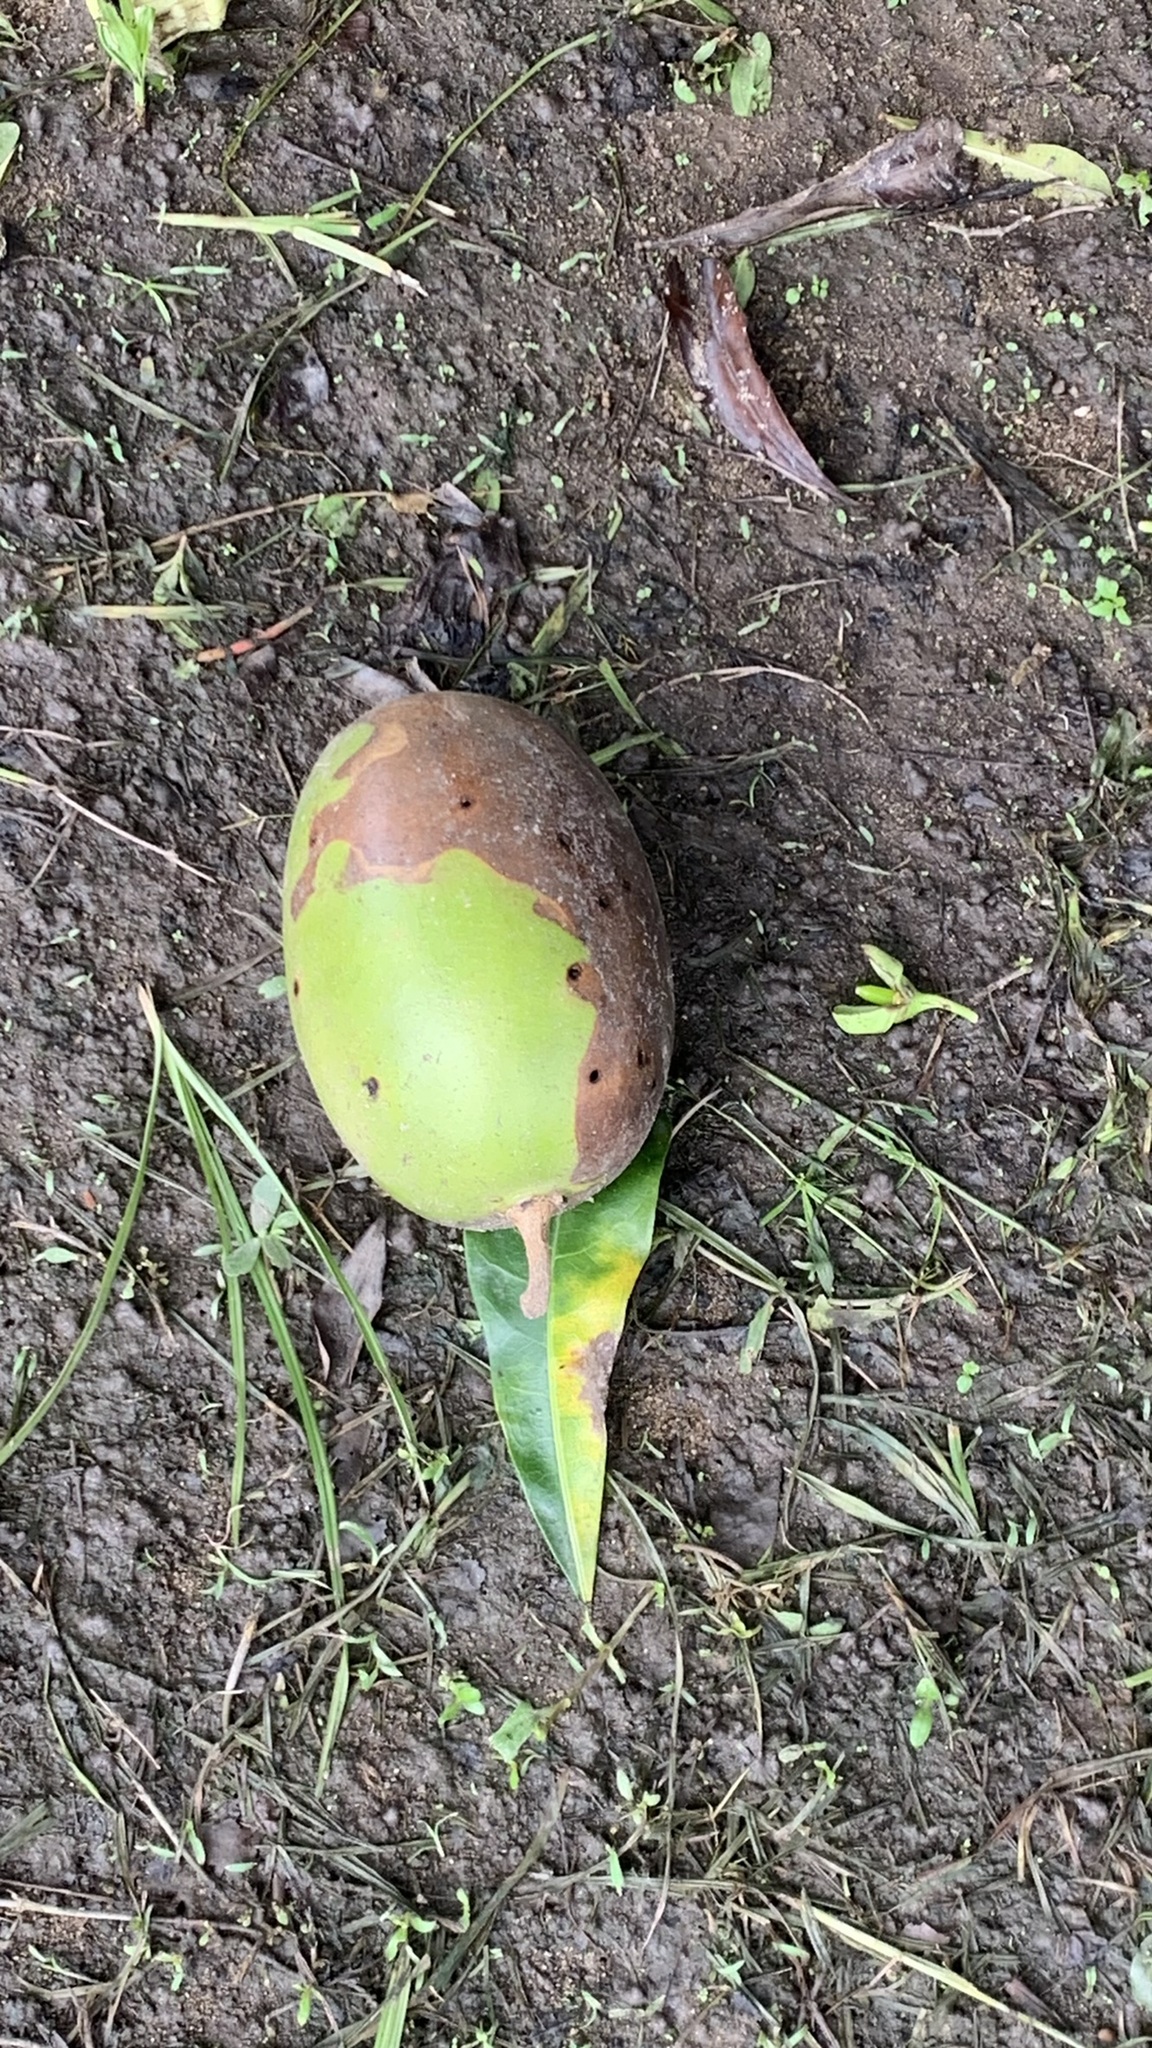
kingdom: Plantae
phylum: Tracheophyta
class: Magnoliopsida
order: Lamiales
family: Bignoniaceae
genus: Crescentia
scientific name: Crescentia cujete
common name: Calabash
